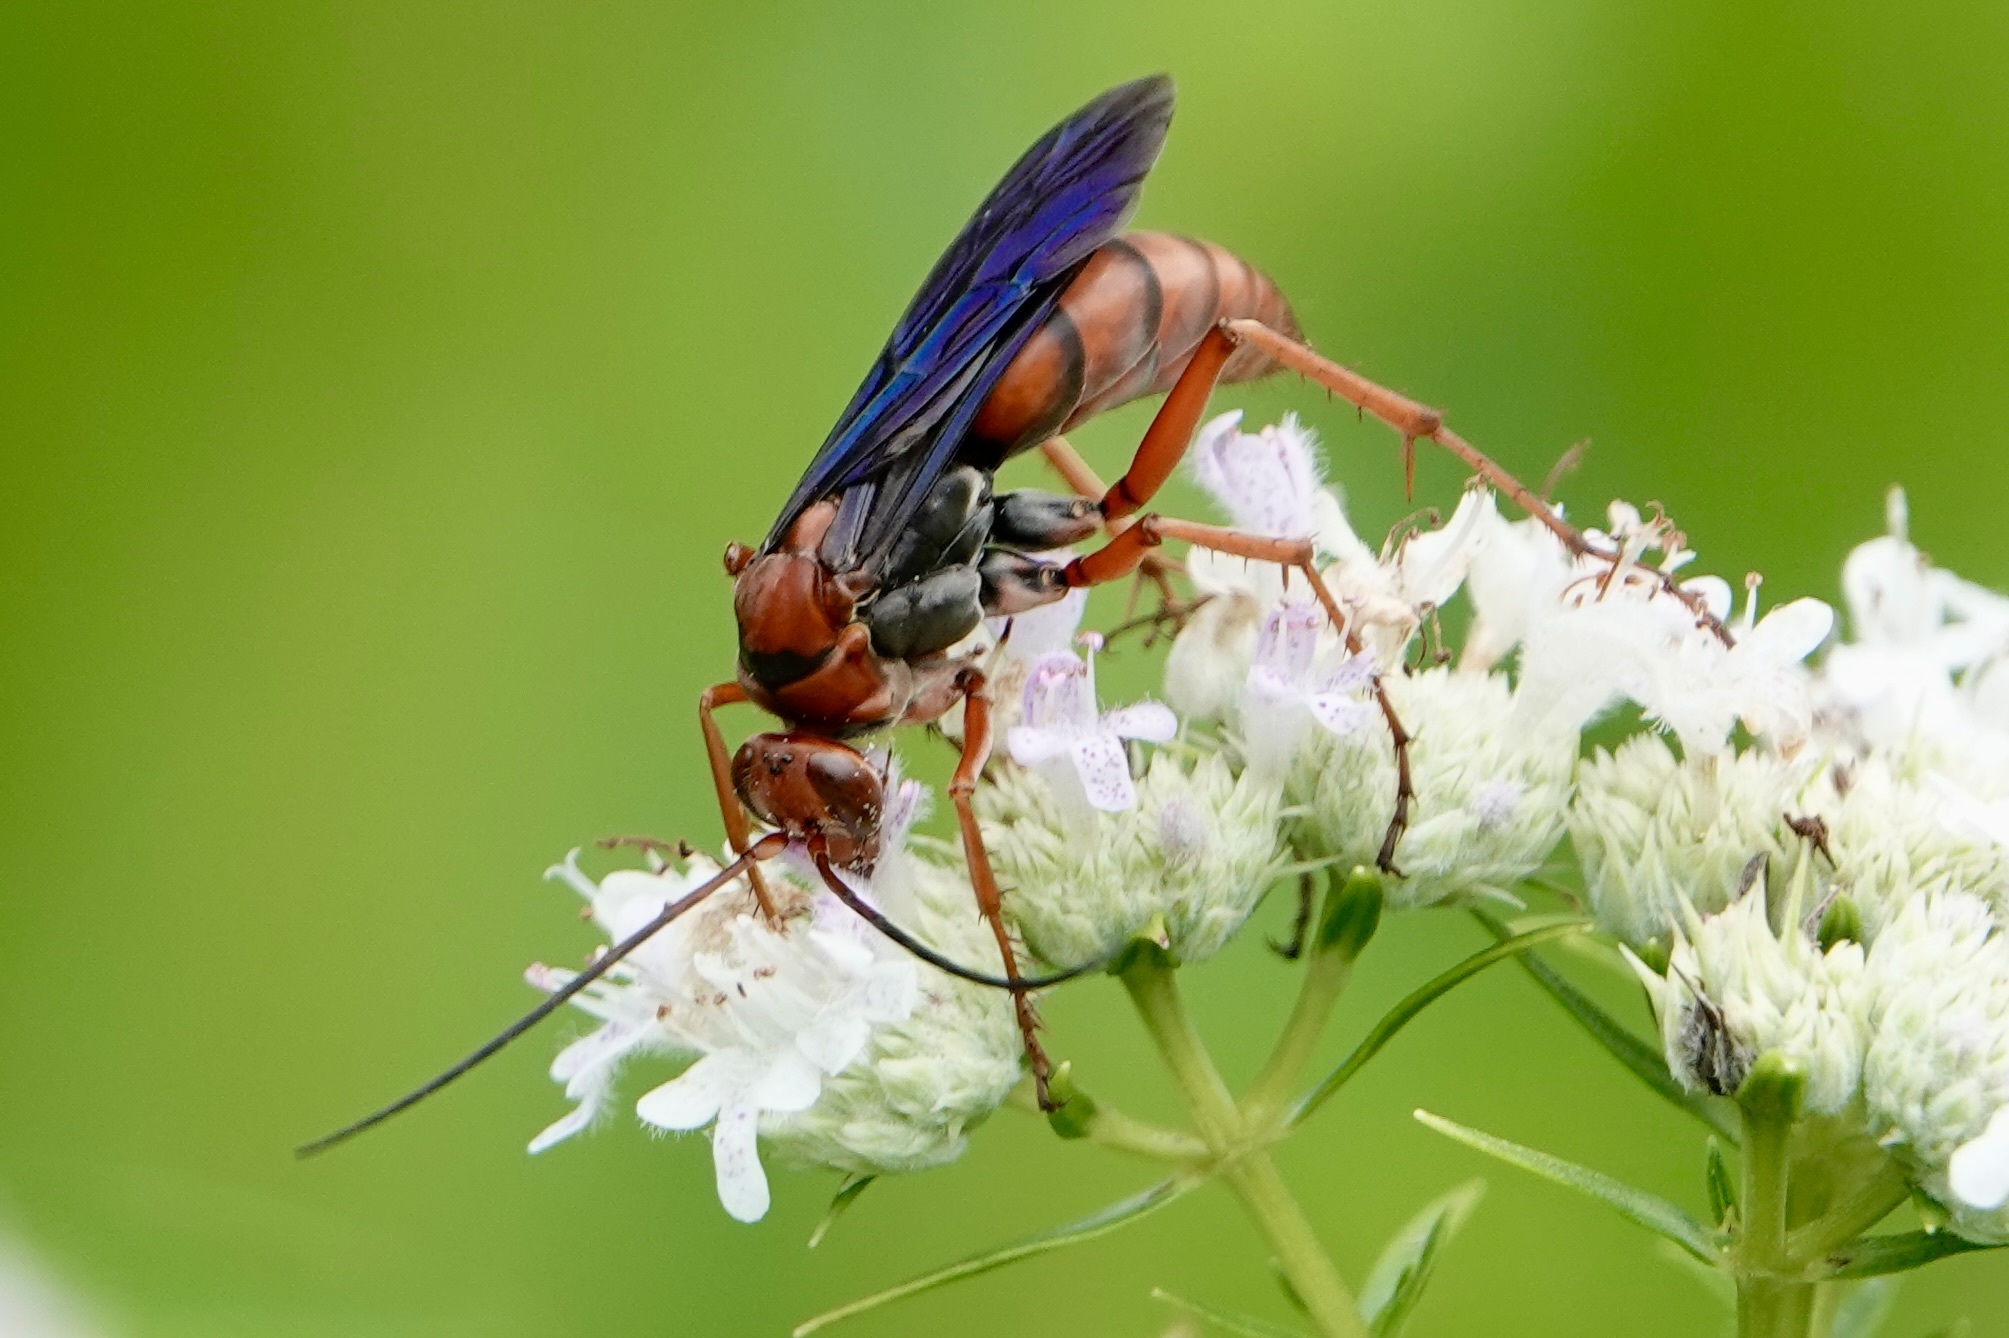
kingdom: Animalia
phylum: Arthropoda
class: Insecta
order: Hymenoptera
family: Pompilidae
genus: Tachypompilus
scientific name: Tachypompilus ferrugineus
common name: Rusty spider wasp
